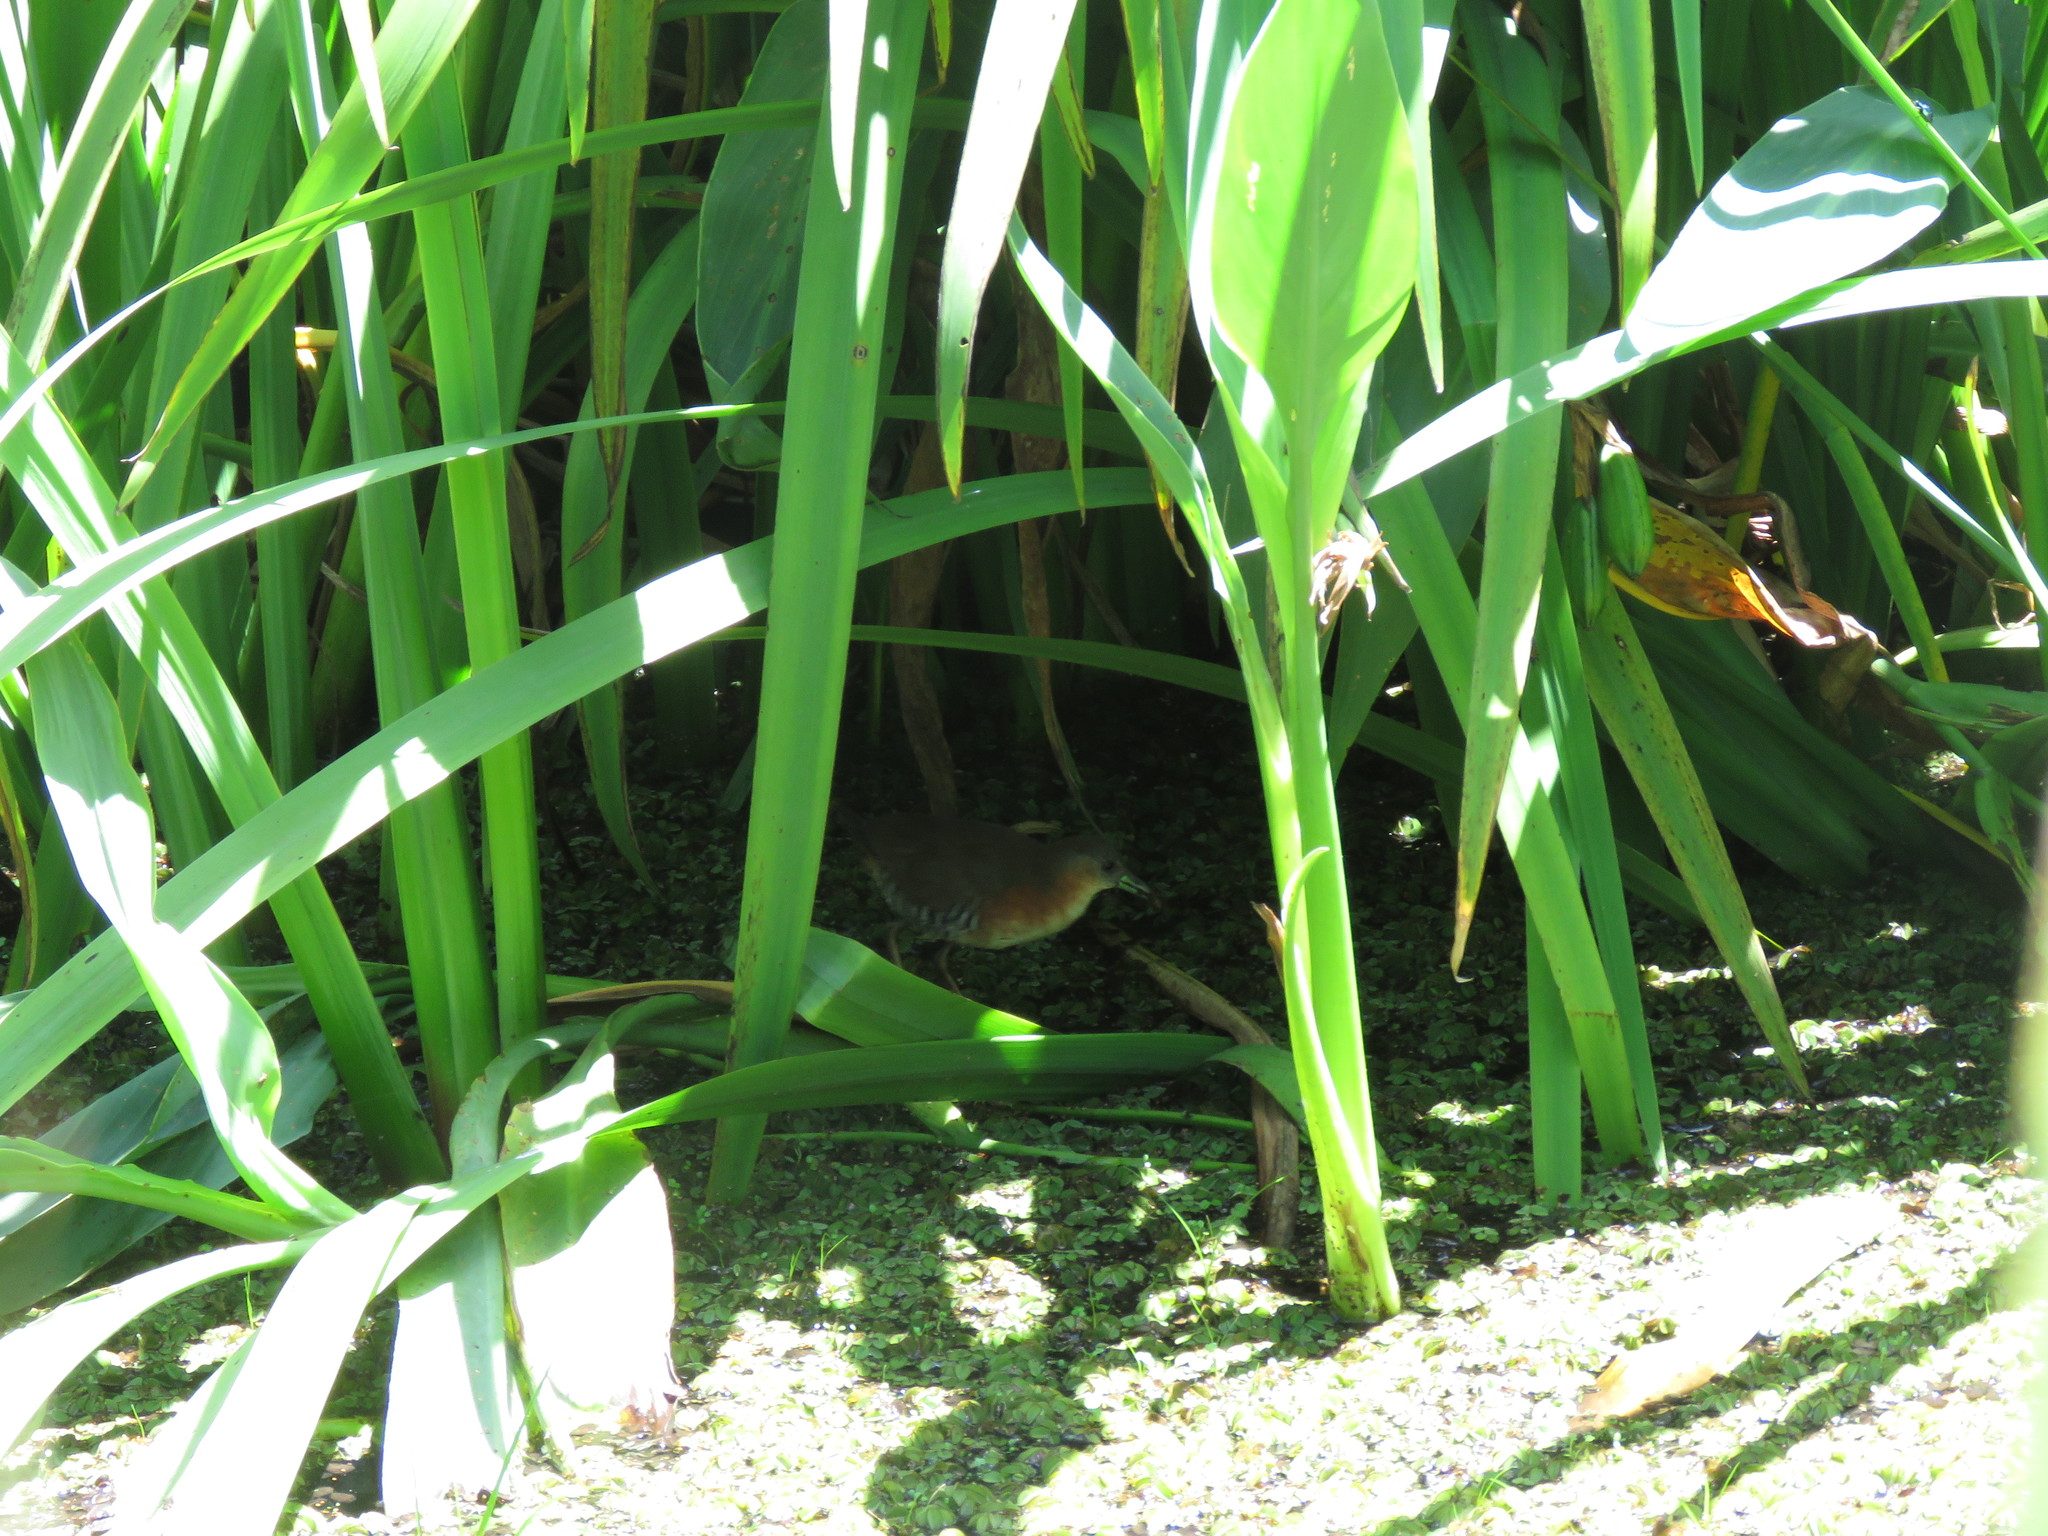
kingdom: Animalia
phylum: Chordata
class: Aves
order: Gruiformes
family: Rallidae
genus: Laterallus
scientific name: Laterallus melanophaius
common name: Rufous-sided crake
